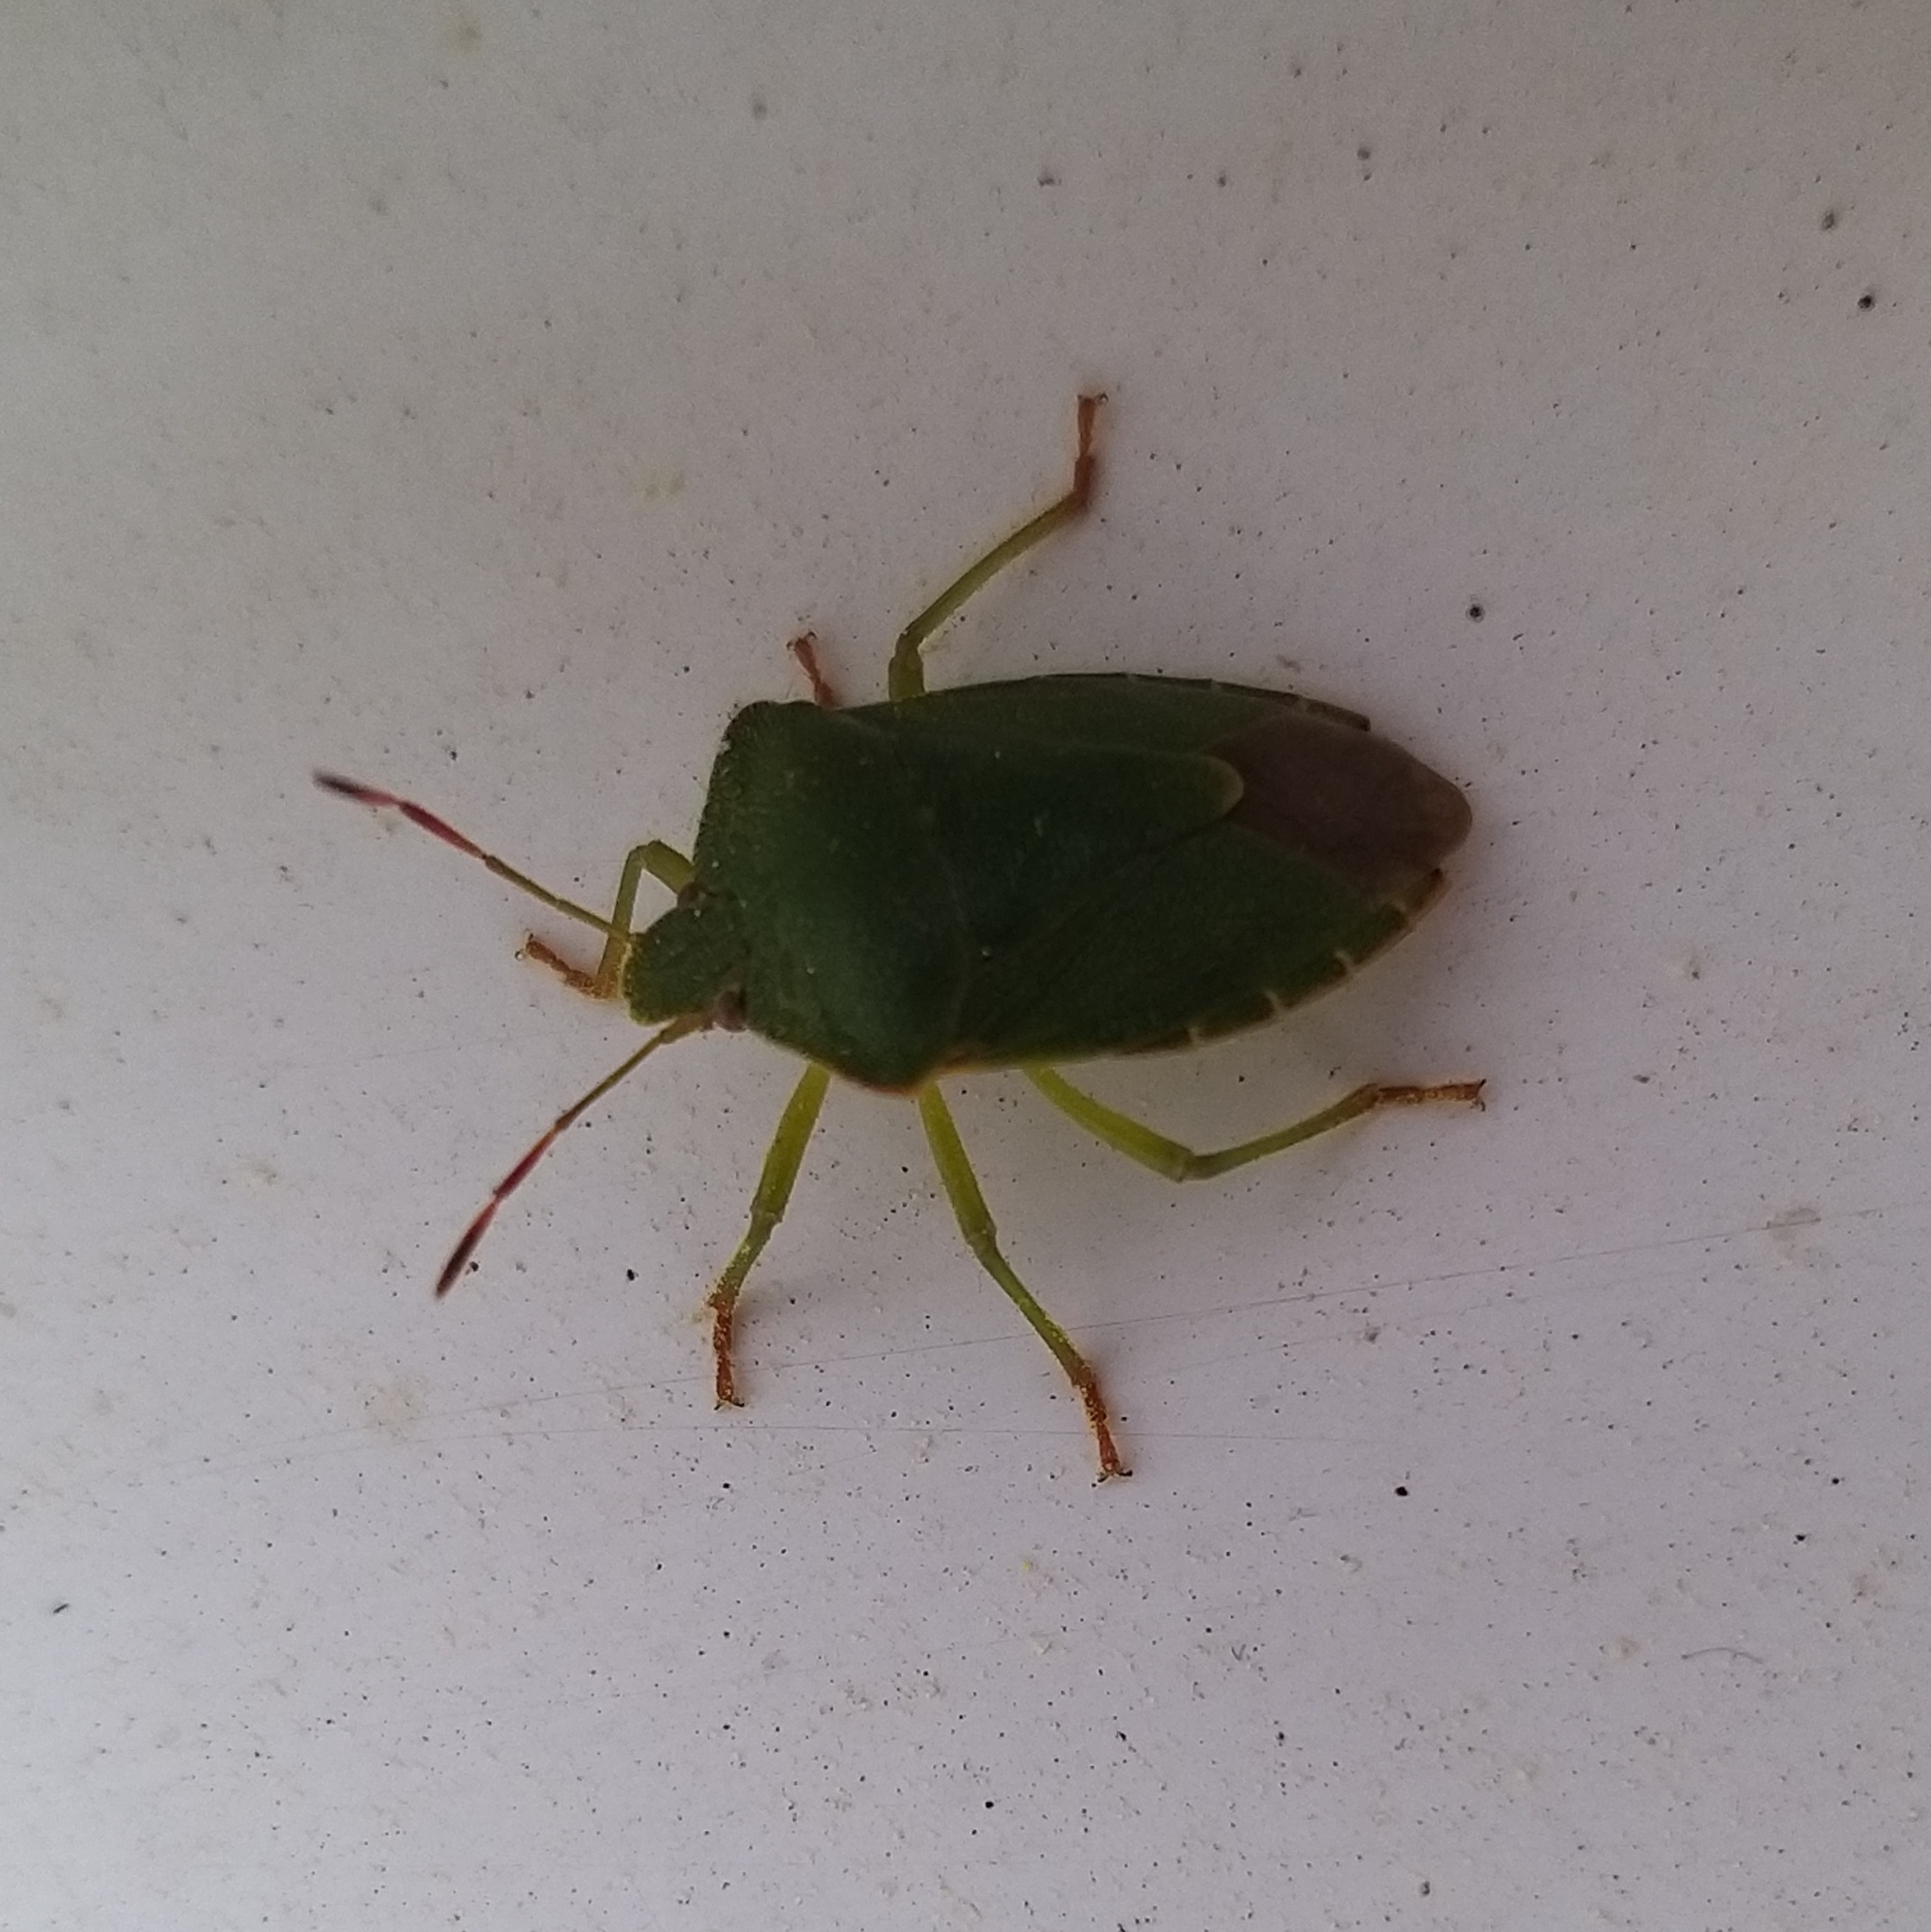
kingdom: Animalia
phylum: Arthropoda
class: Insecta
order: Hemiptera
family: Pentatomidae
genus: Palomena
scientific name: Palomena prasina
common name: Green shieldbug
